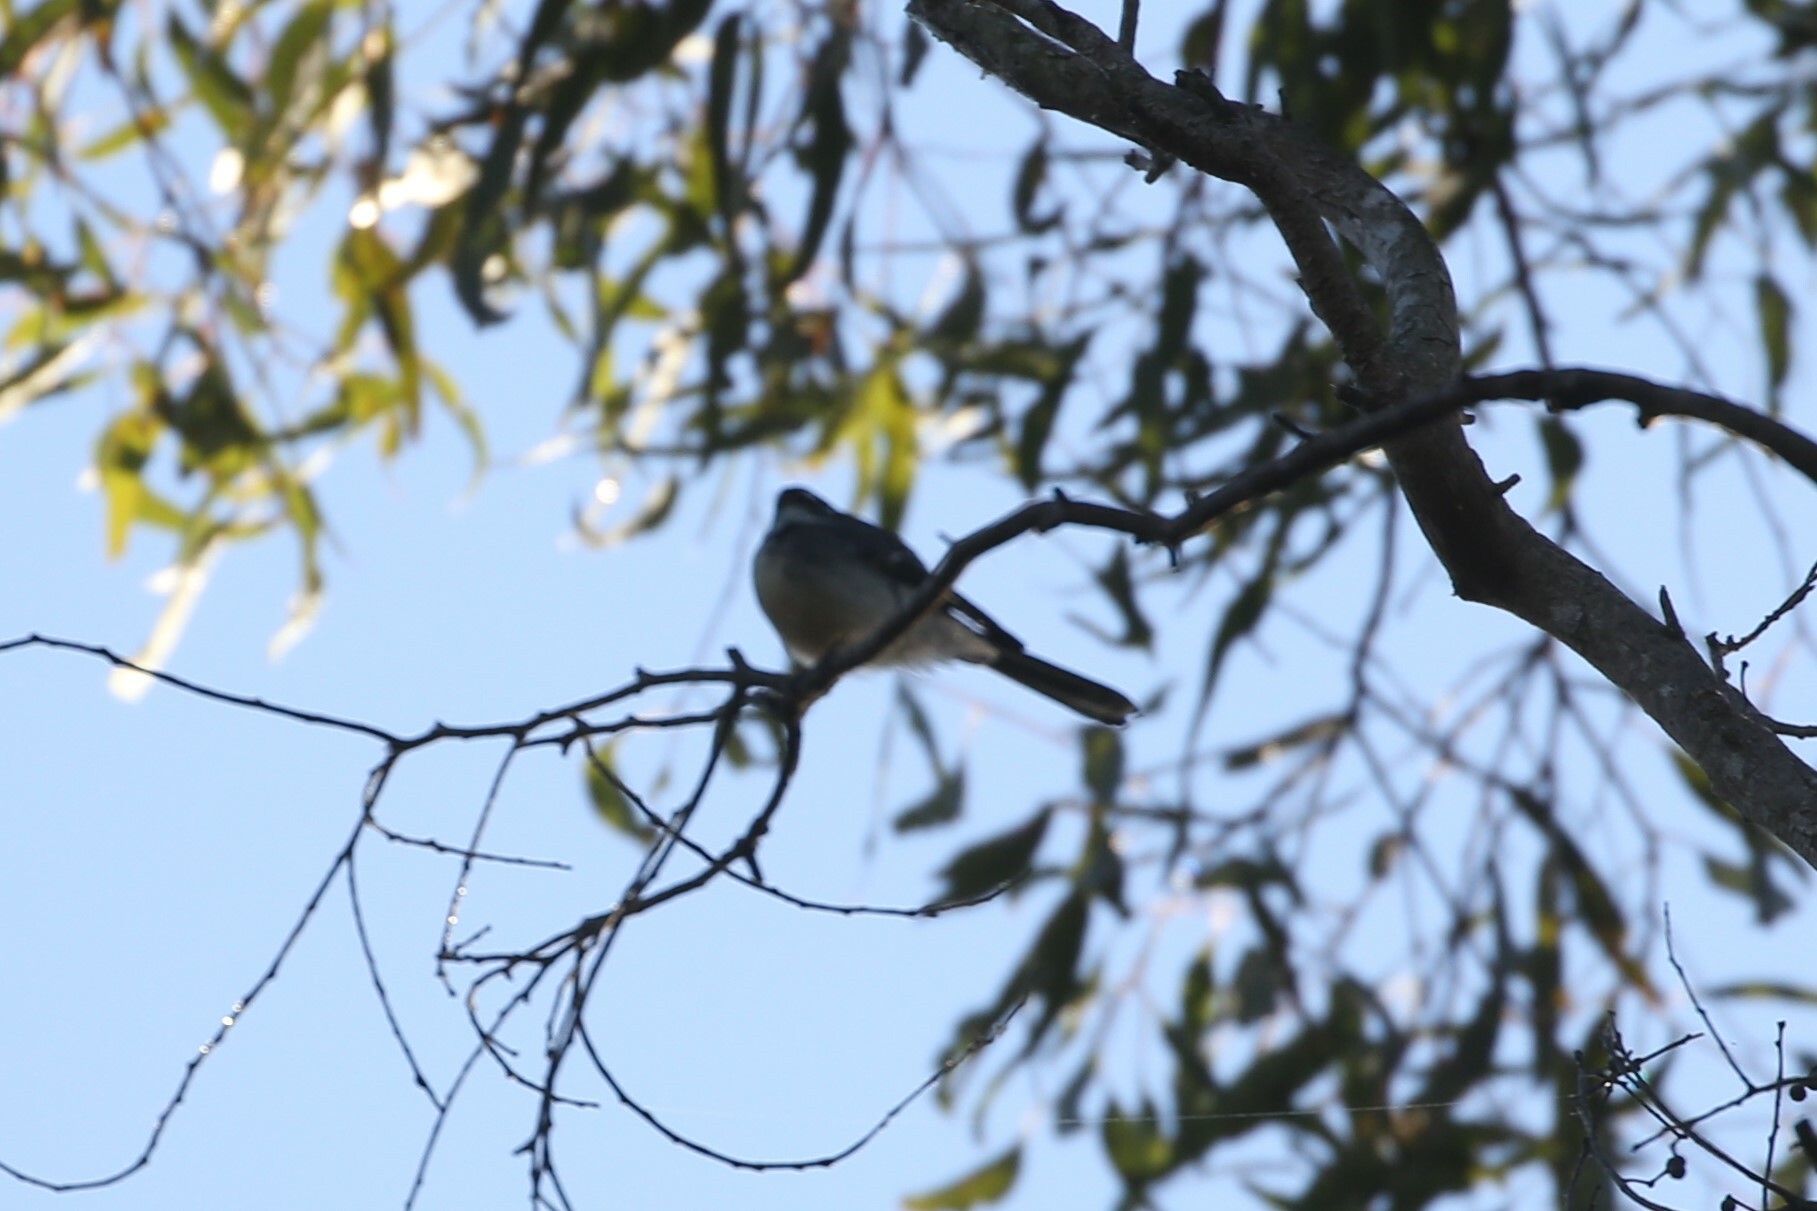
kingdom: Animalia
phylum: Chordata
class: Aves
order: Passeriformes
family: Rhipiduridae
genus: Rhipidura
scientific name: Rhipidura albiscapa
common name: Grey fantail
